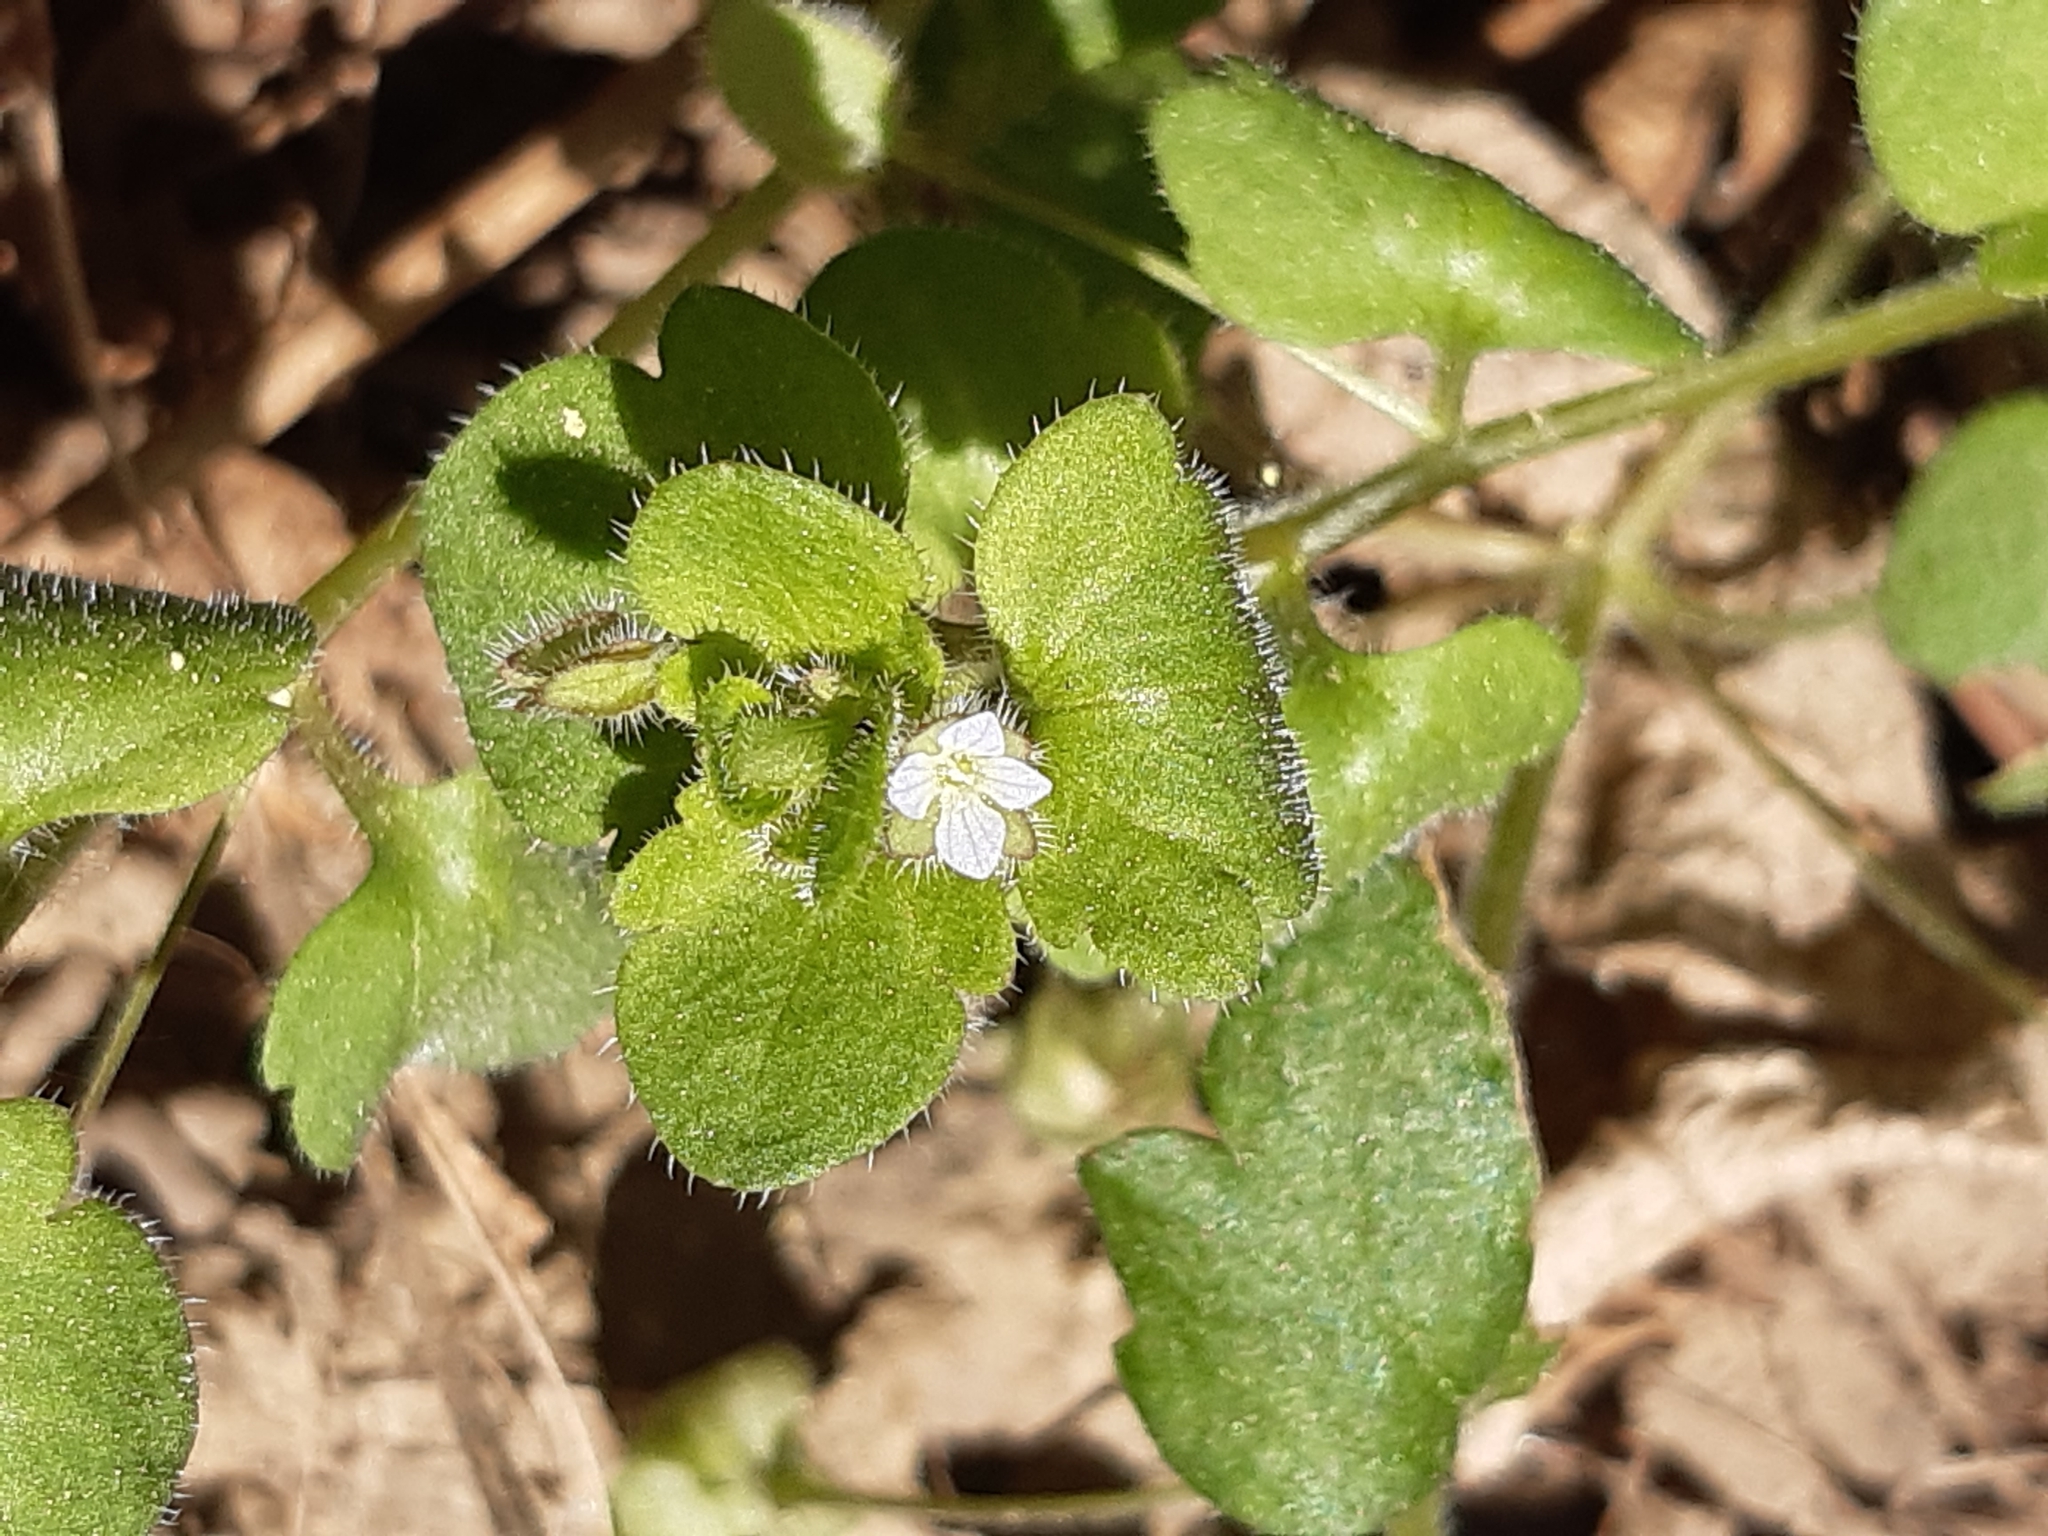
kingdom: Plantae
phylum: Tracheophyta
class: Magnoliopsida
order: Lamiales
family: Plantaginaceae
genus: Veronica
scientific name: Veronica sublobata
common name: False ivy-leaved speedwell
